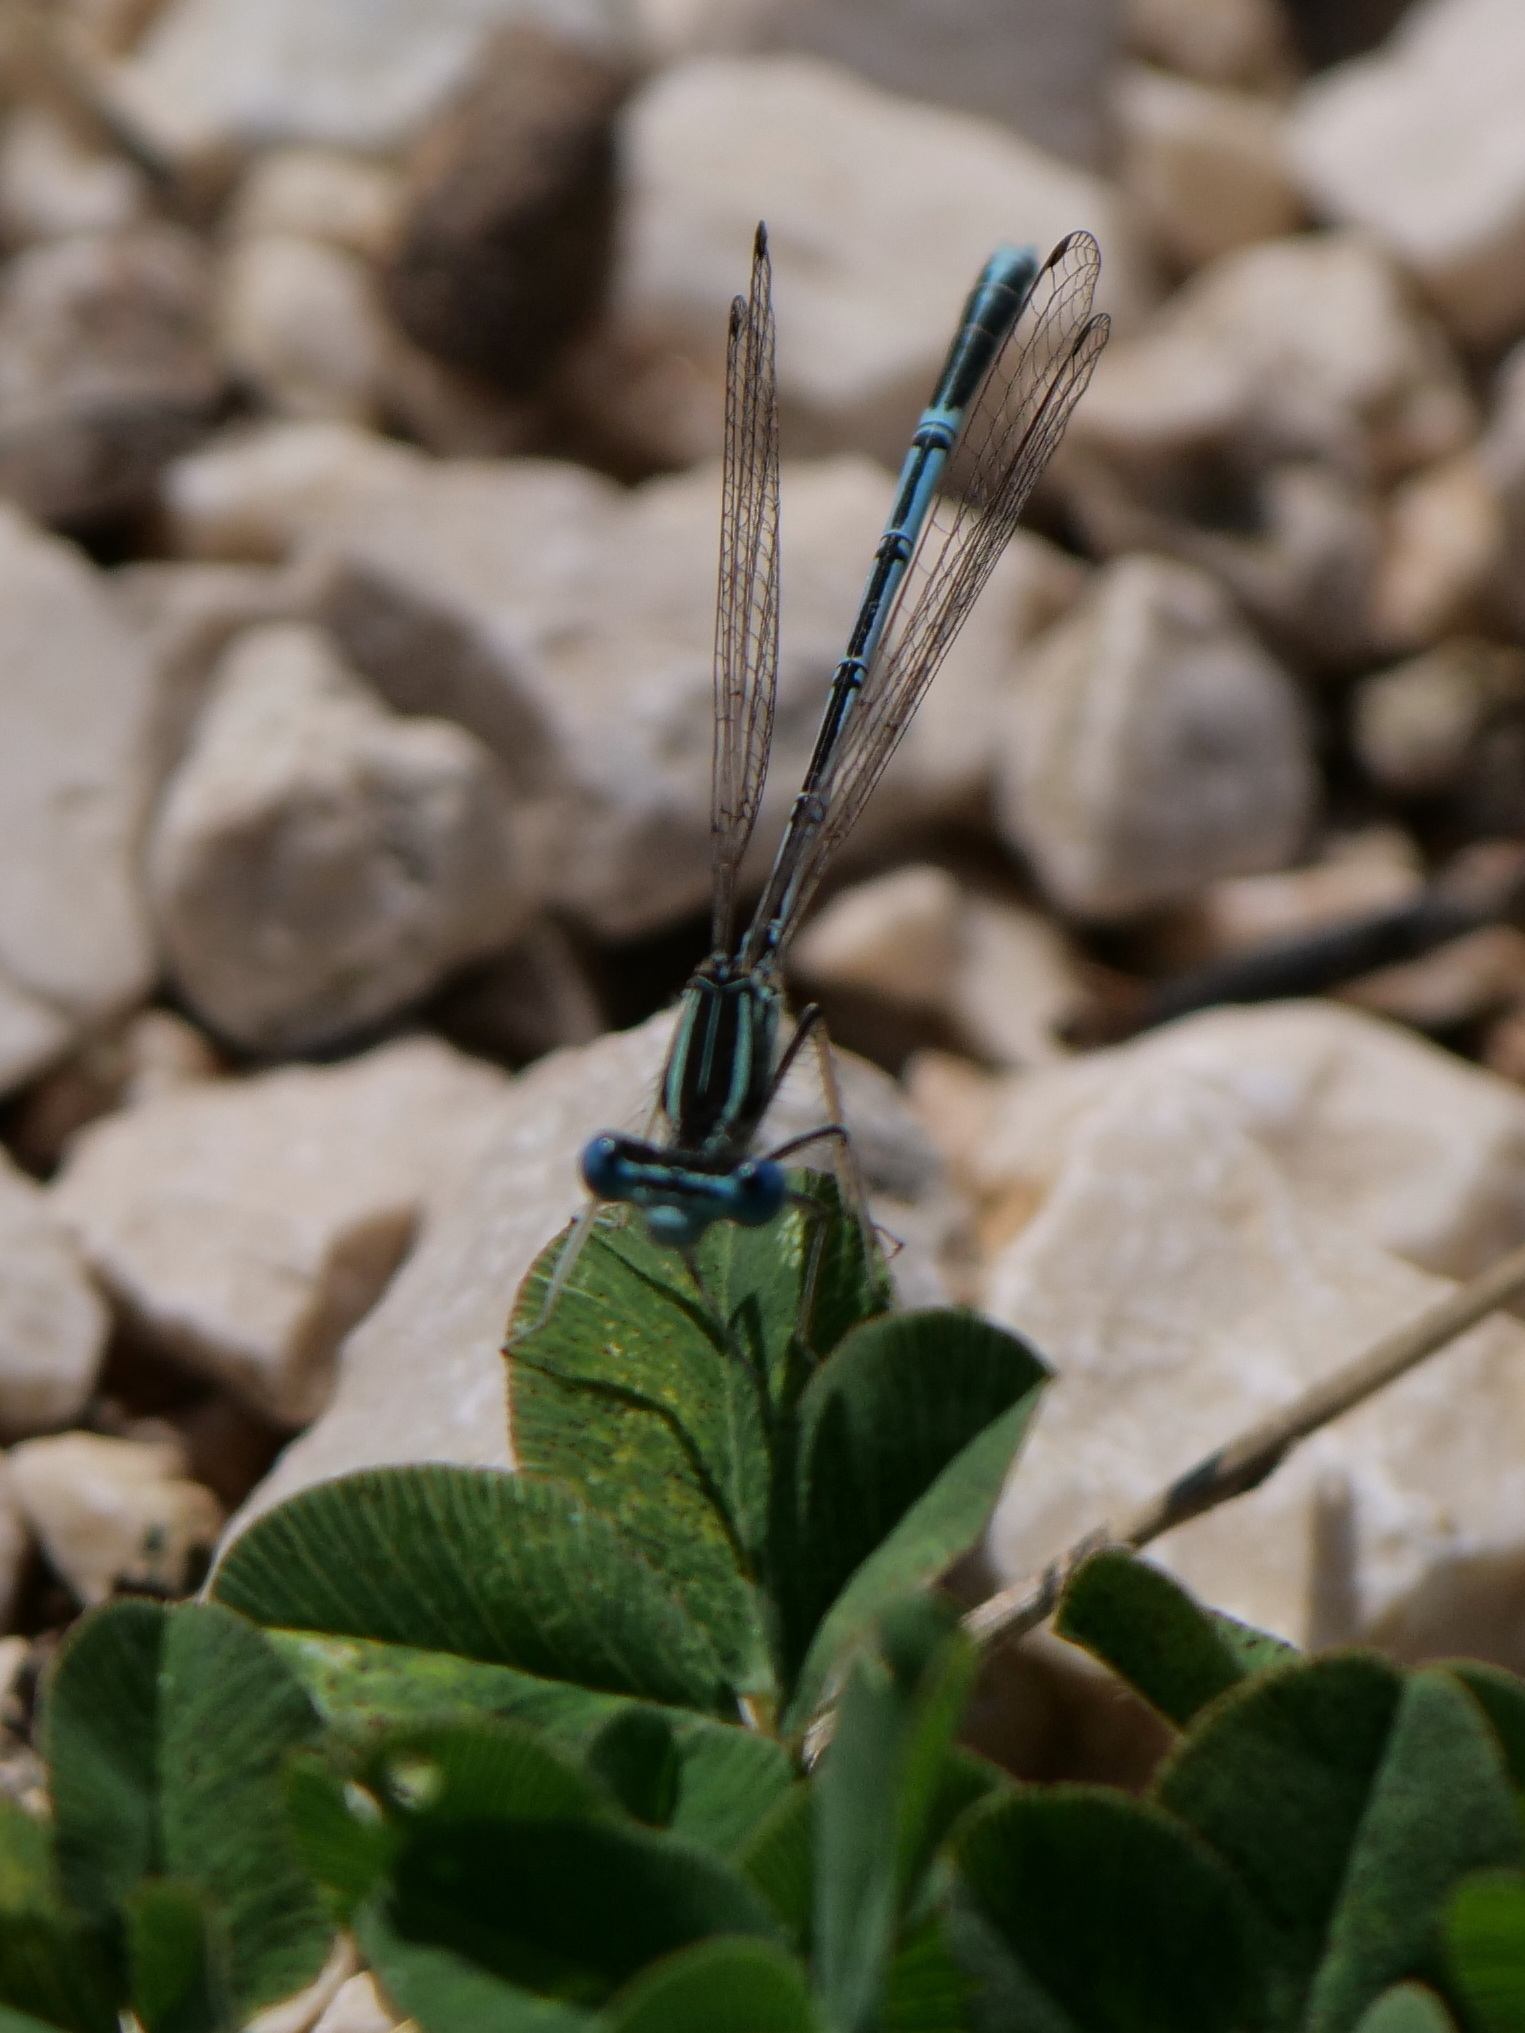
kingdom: Animalia
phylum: Arthropoda
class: Insecta
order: Odonata
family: Platycnemididae
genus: Platycnemis
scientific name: Platycnemis pennipes
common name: White-legged damselfly
